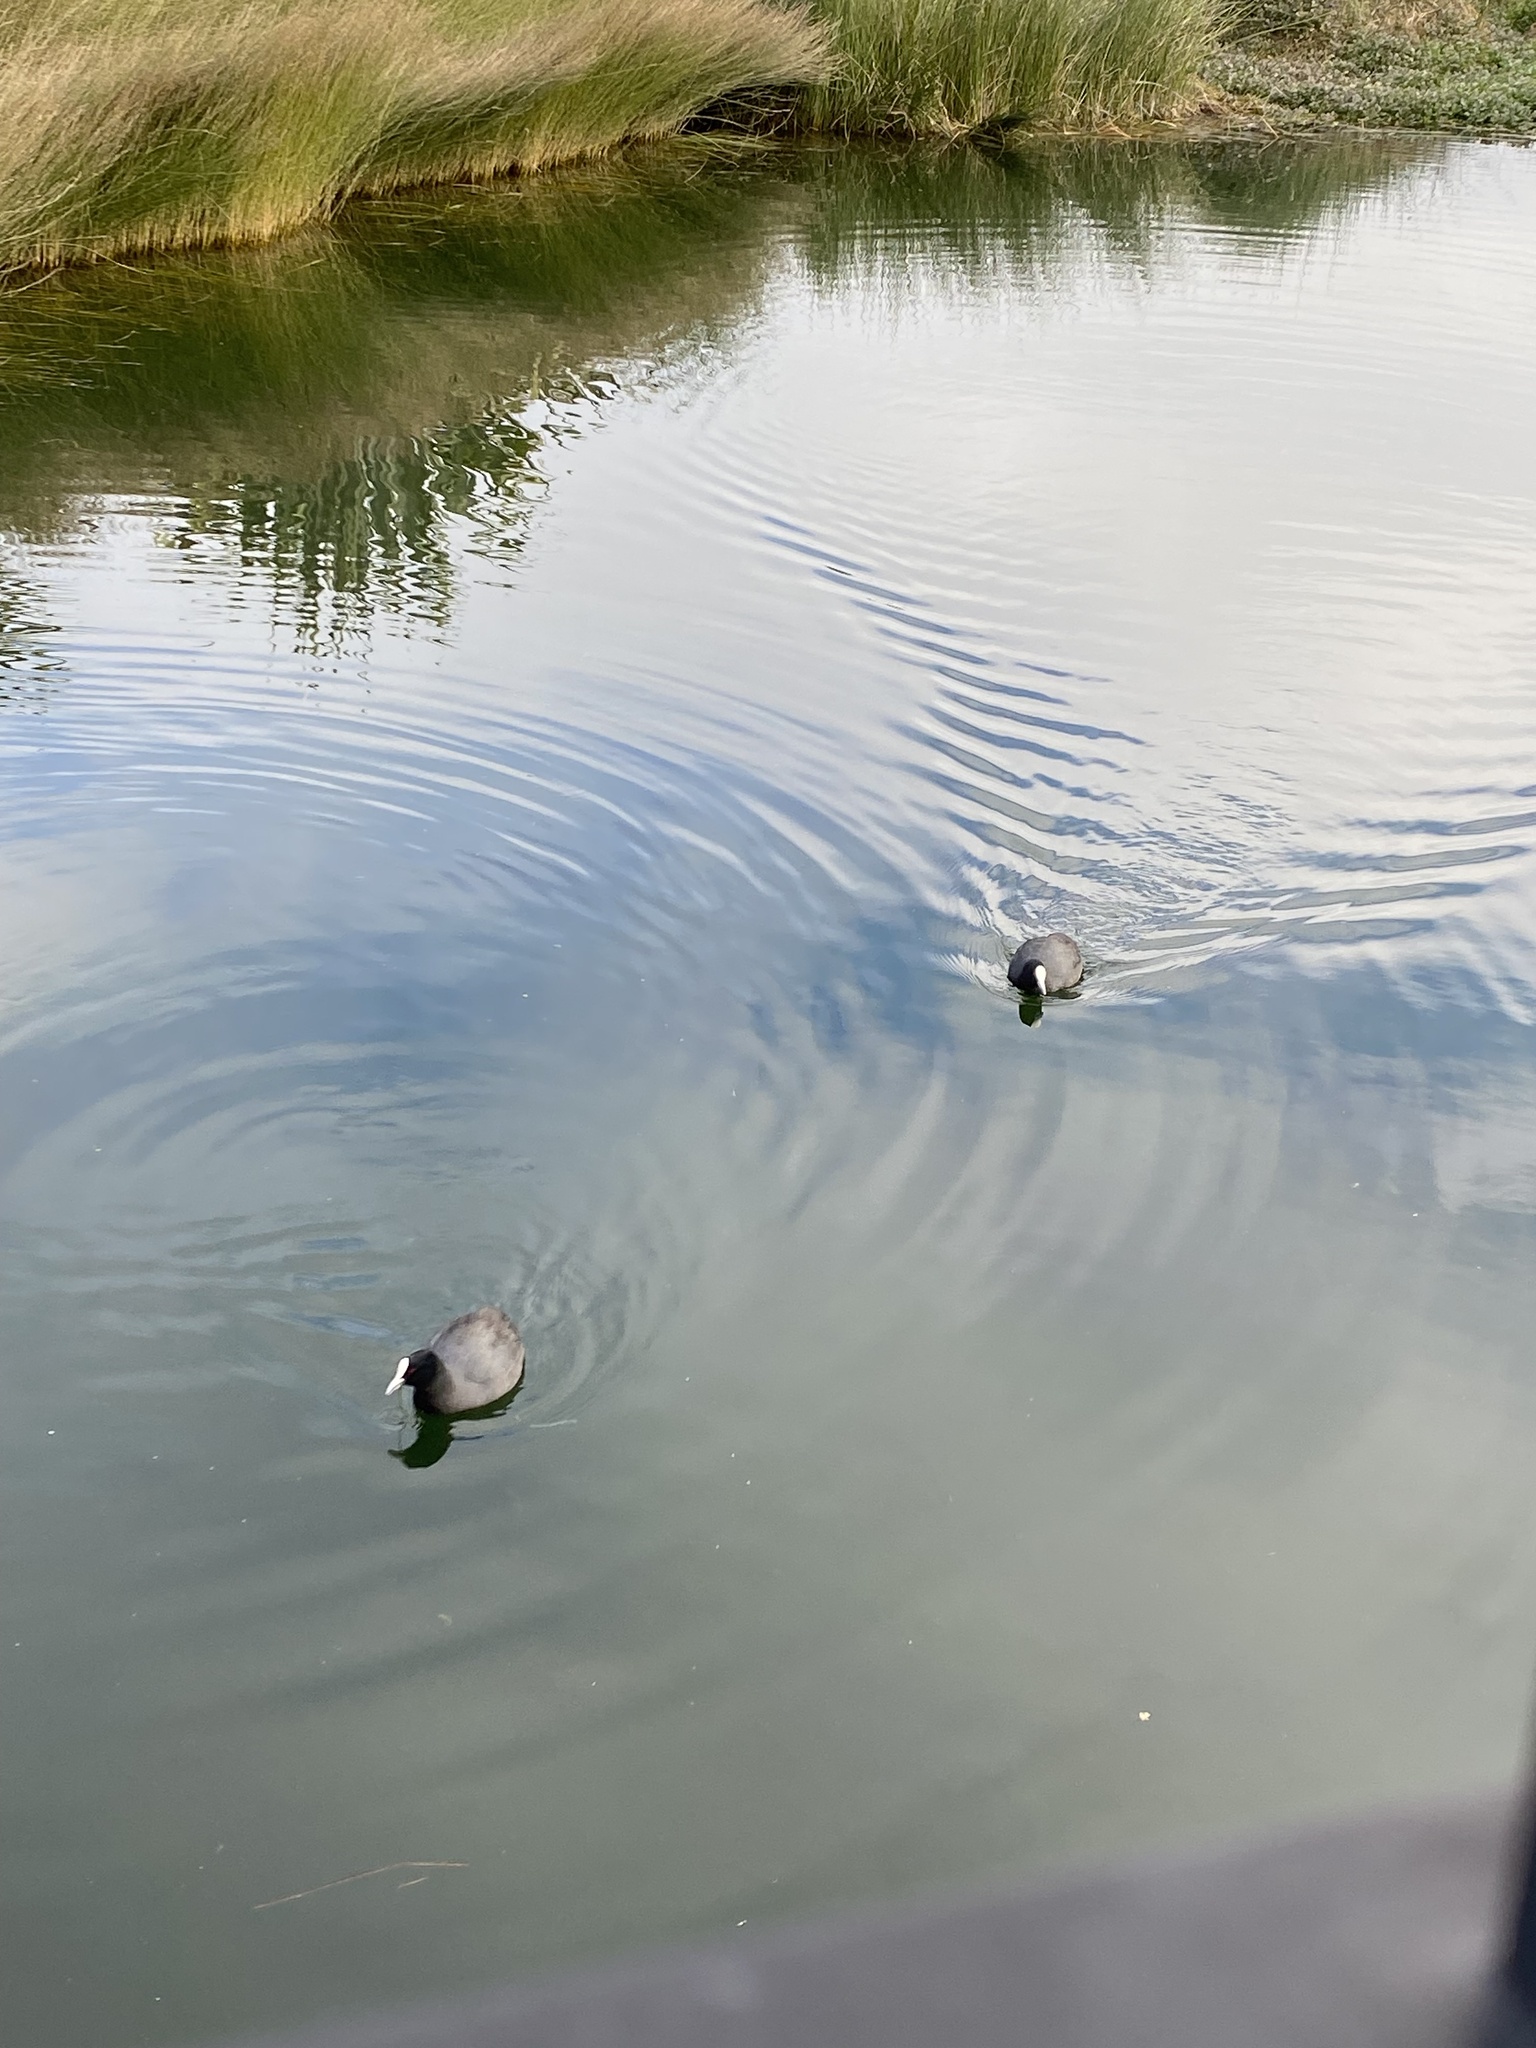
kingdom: Animalia
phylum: Chordata
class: Aves
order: Gruiformes
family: Rallidae
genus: Fulica
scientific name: Fulica atra
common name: Eurasian coot
